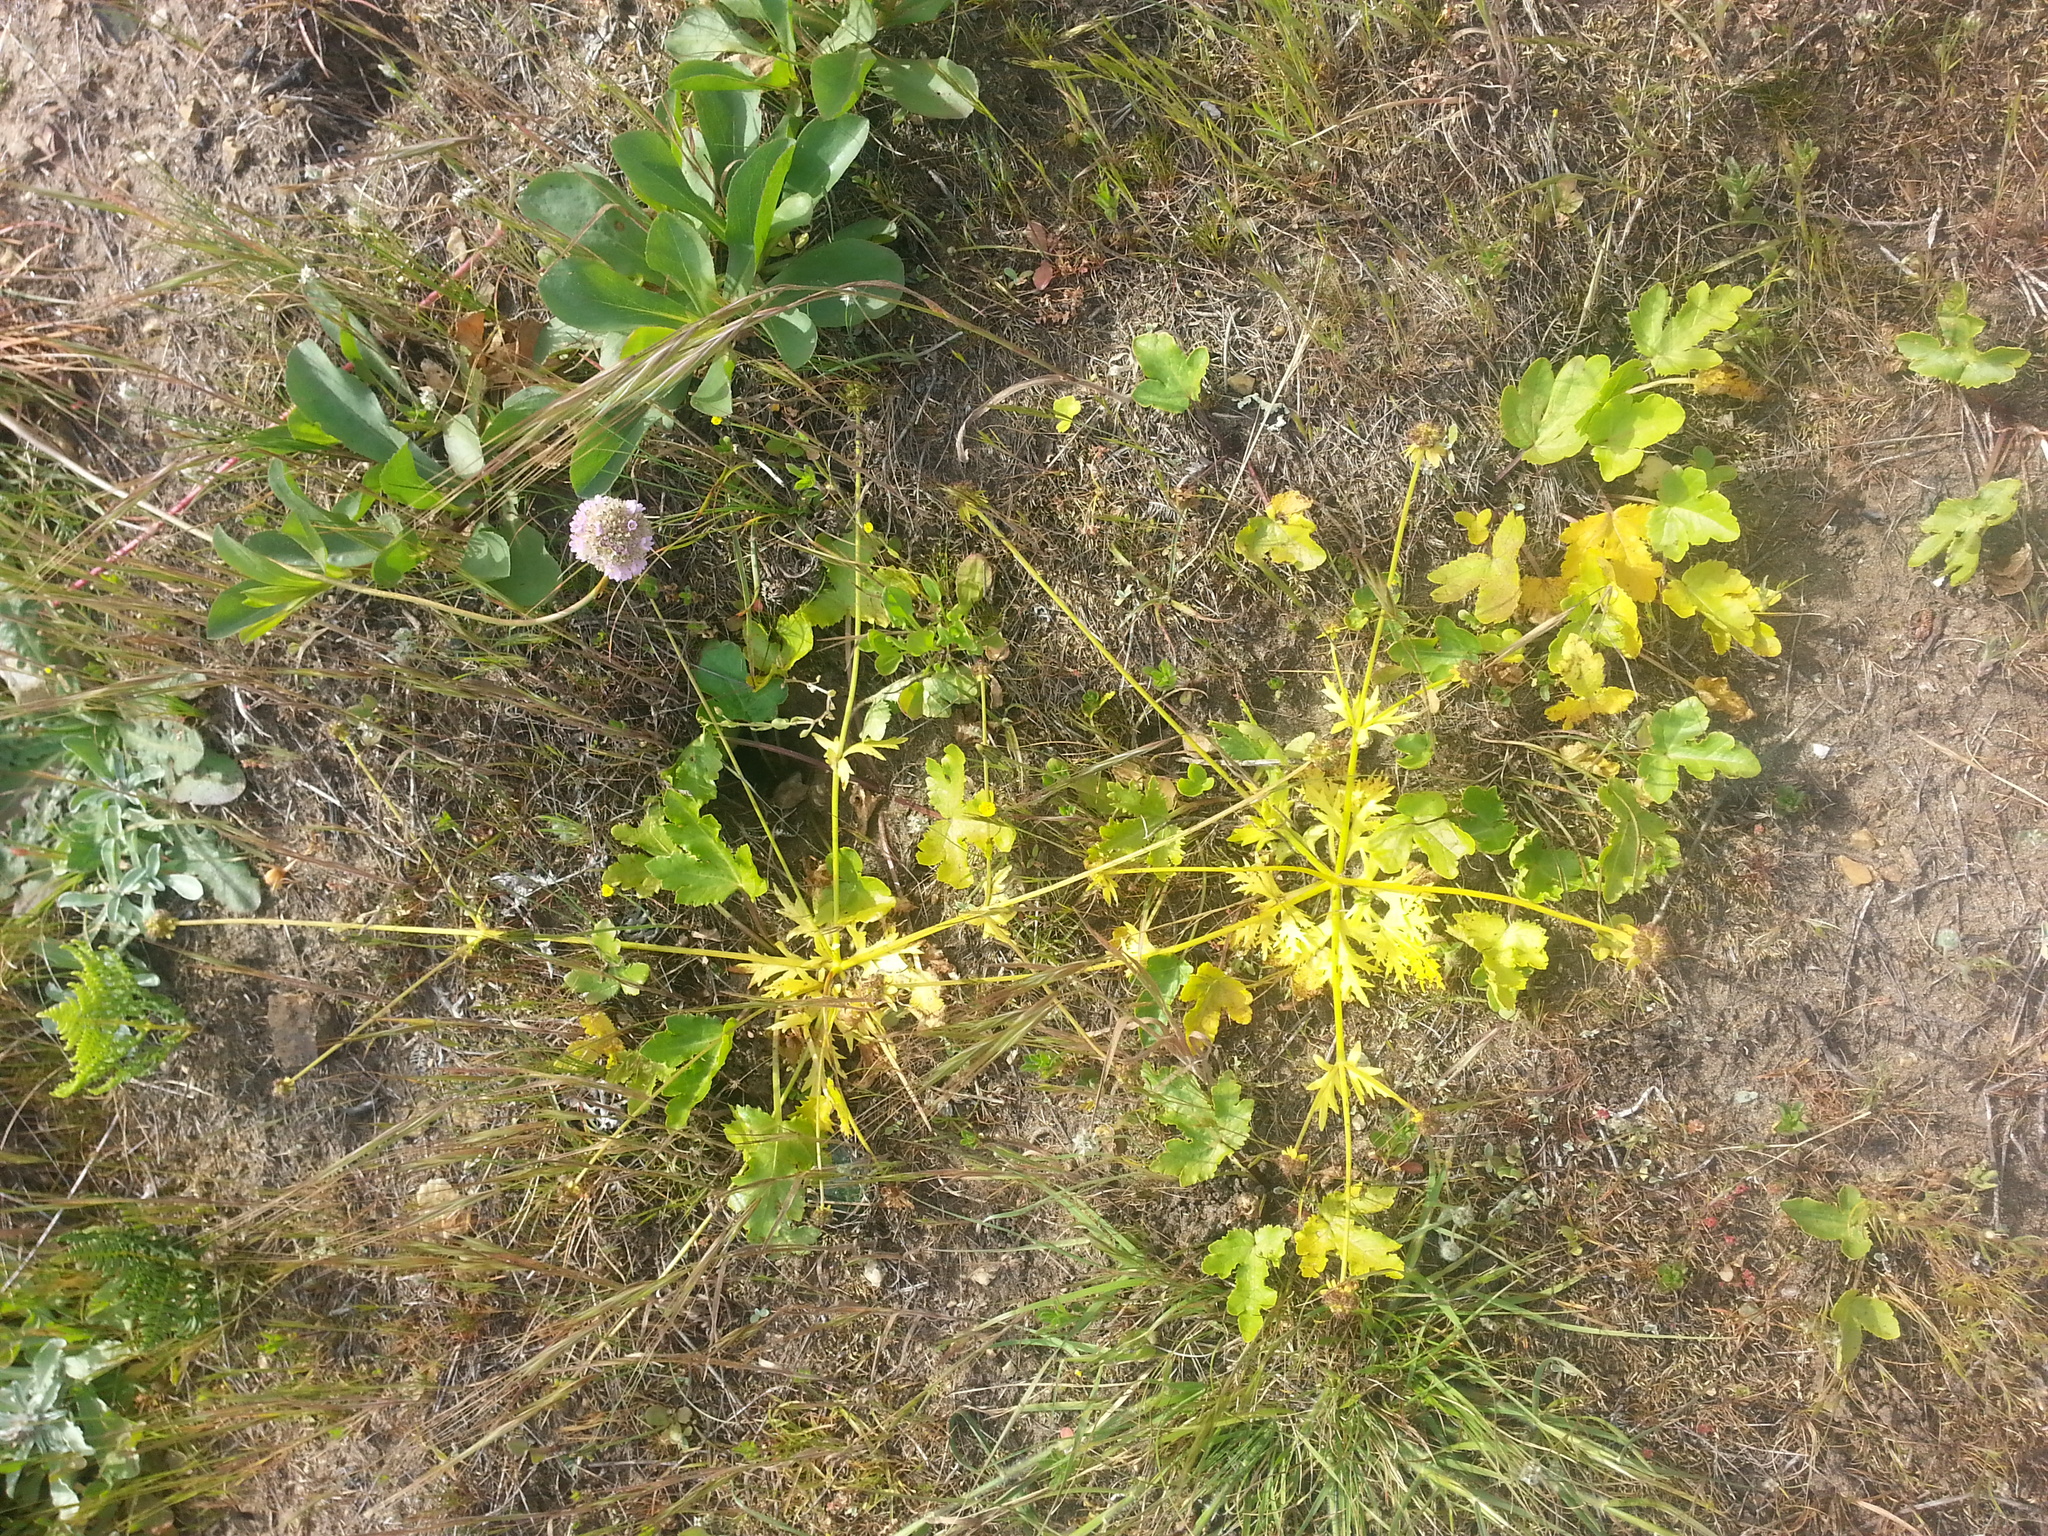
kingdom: Plantae
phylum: Tracheophyta
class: Magnoliopsida
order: Apiales
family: Apiaceae
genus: Sanicula
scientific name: Sanicula arctopoides
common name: Footsteps-of-spring
